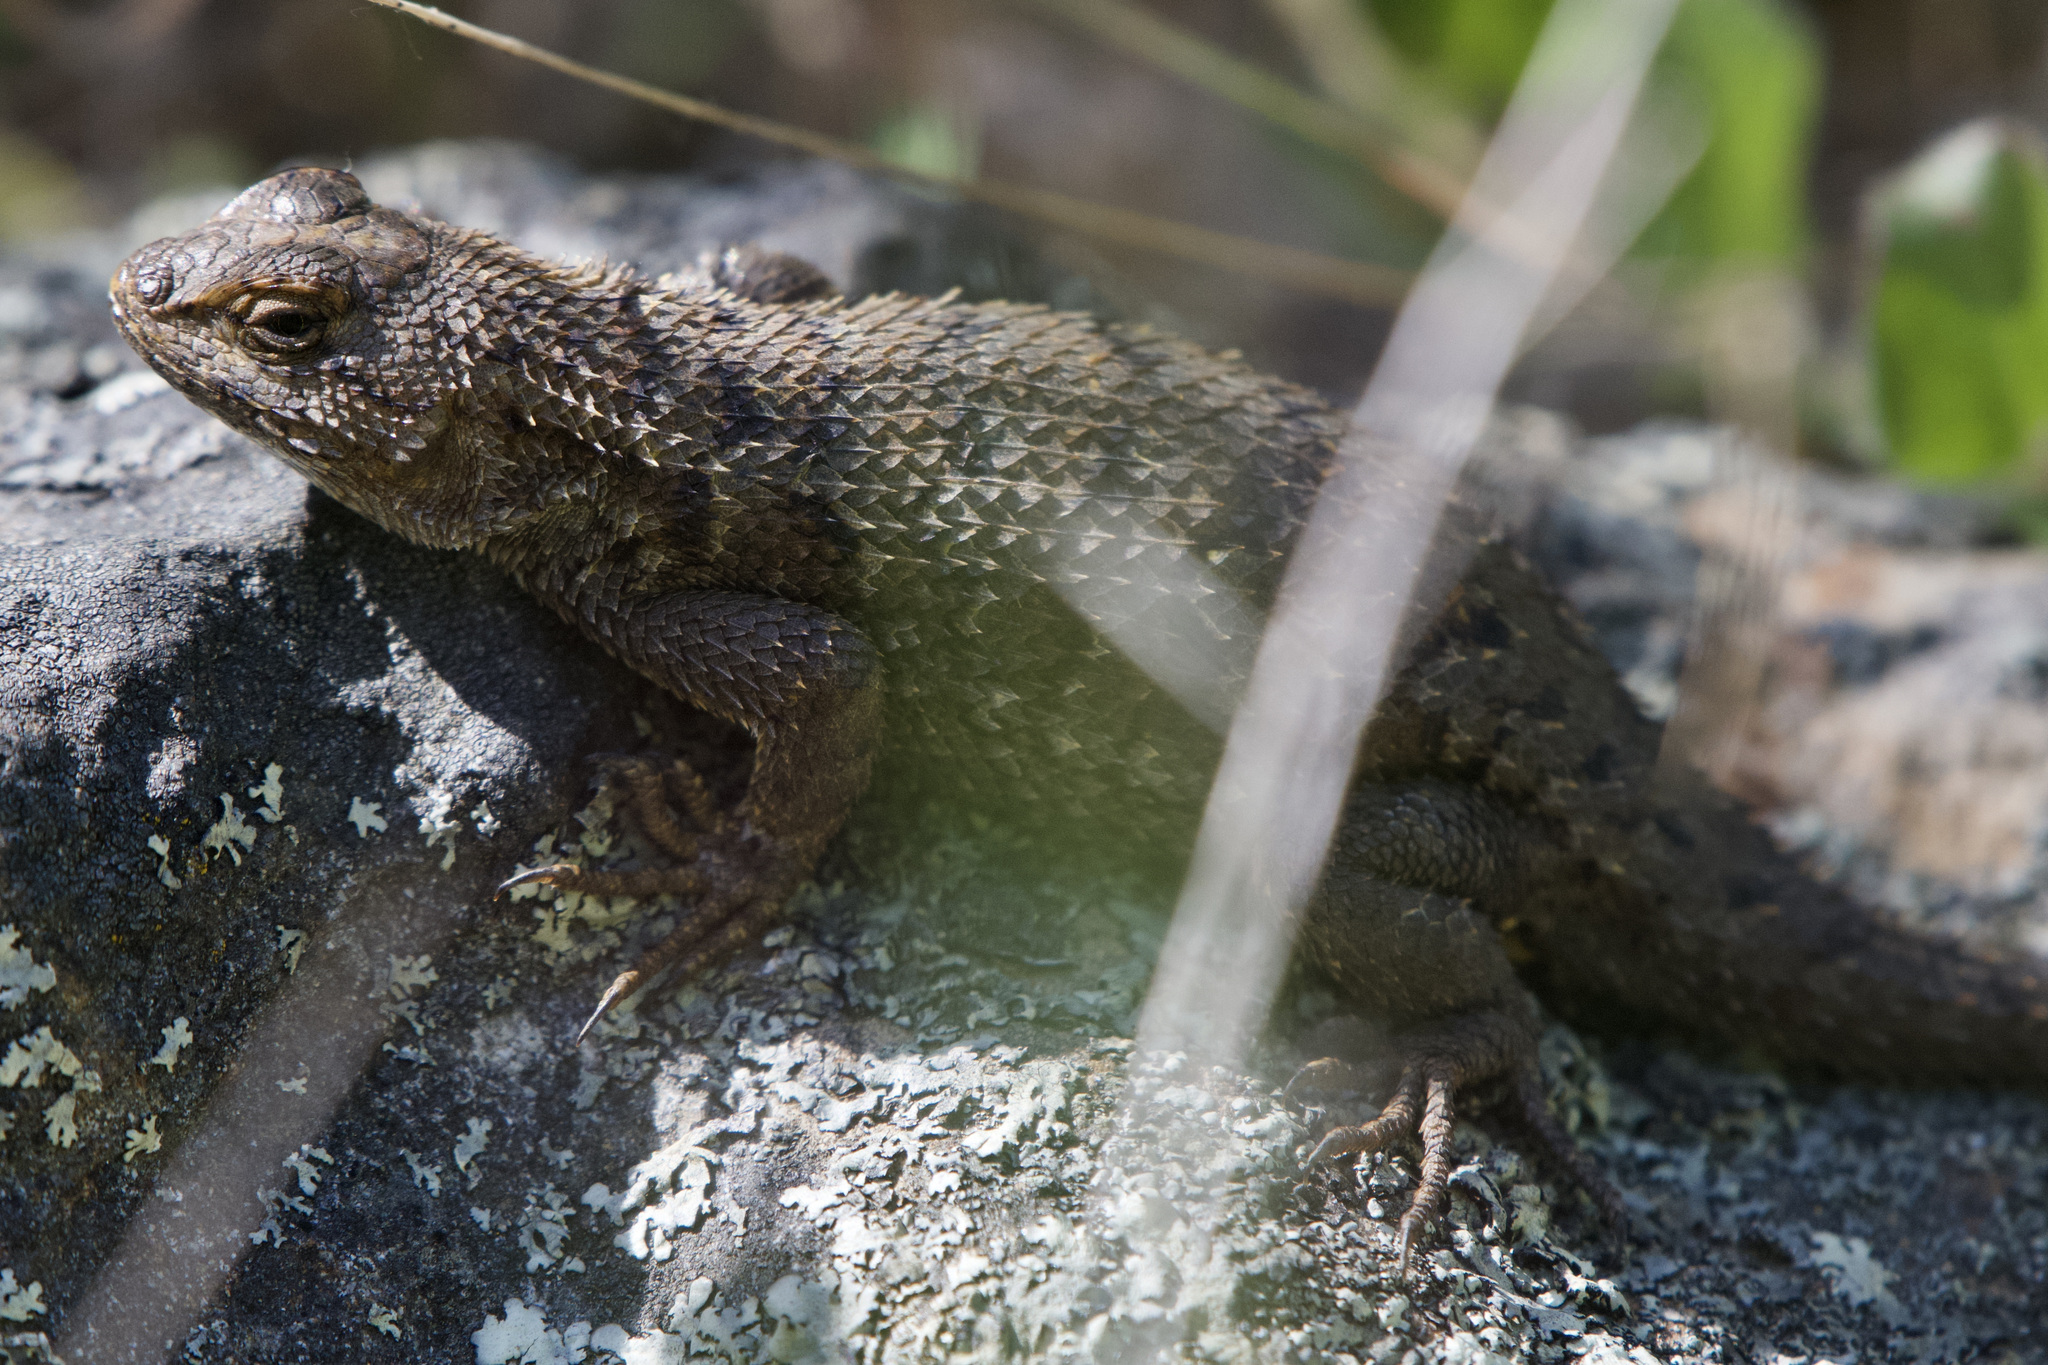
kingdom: Animalia
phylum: Chordata
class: Squamata
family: Phrynosomatidae
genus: Sceloporus
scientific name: Sceloporus occidentalis
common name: Western fence lizard
